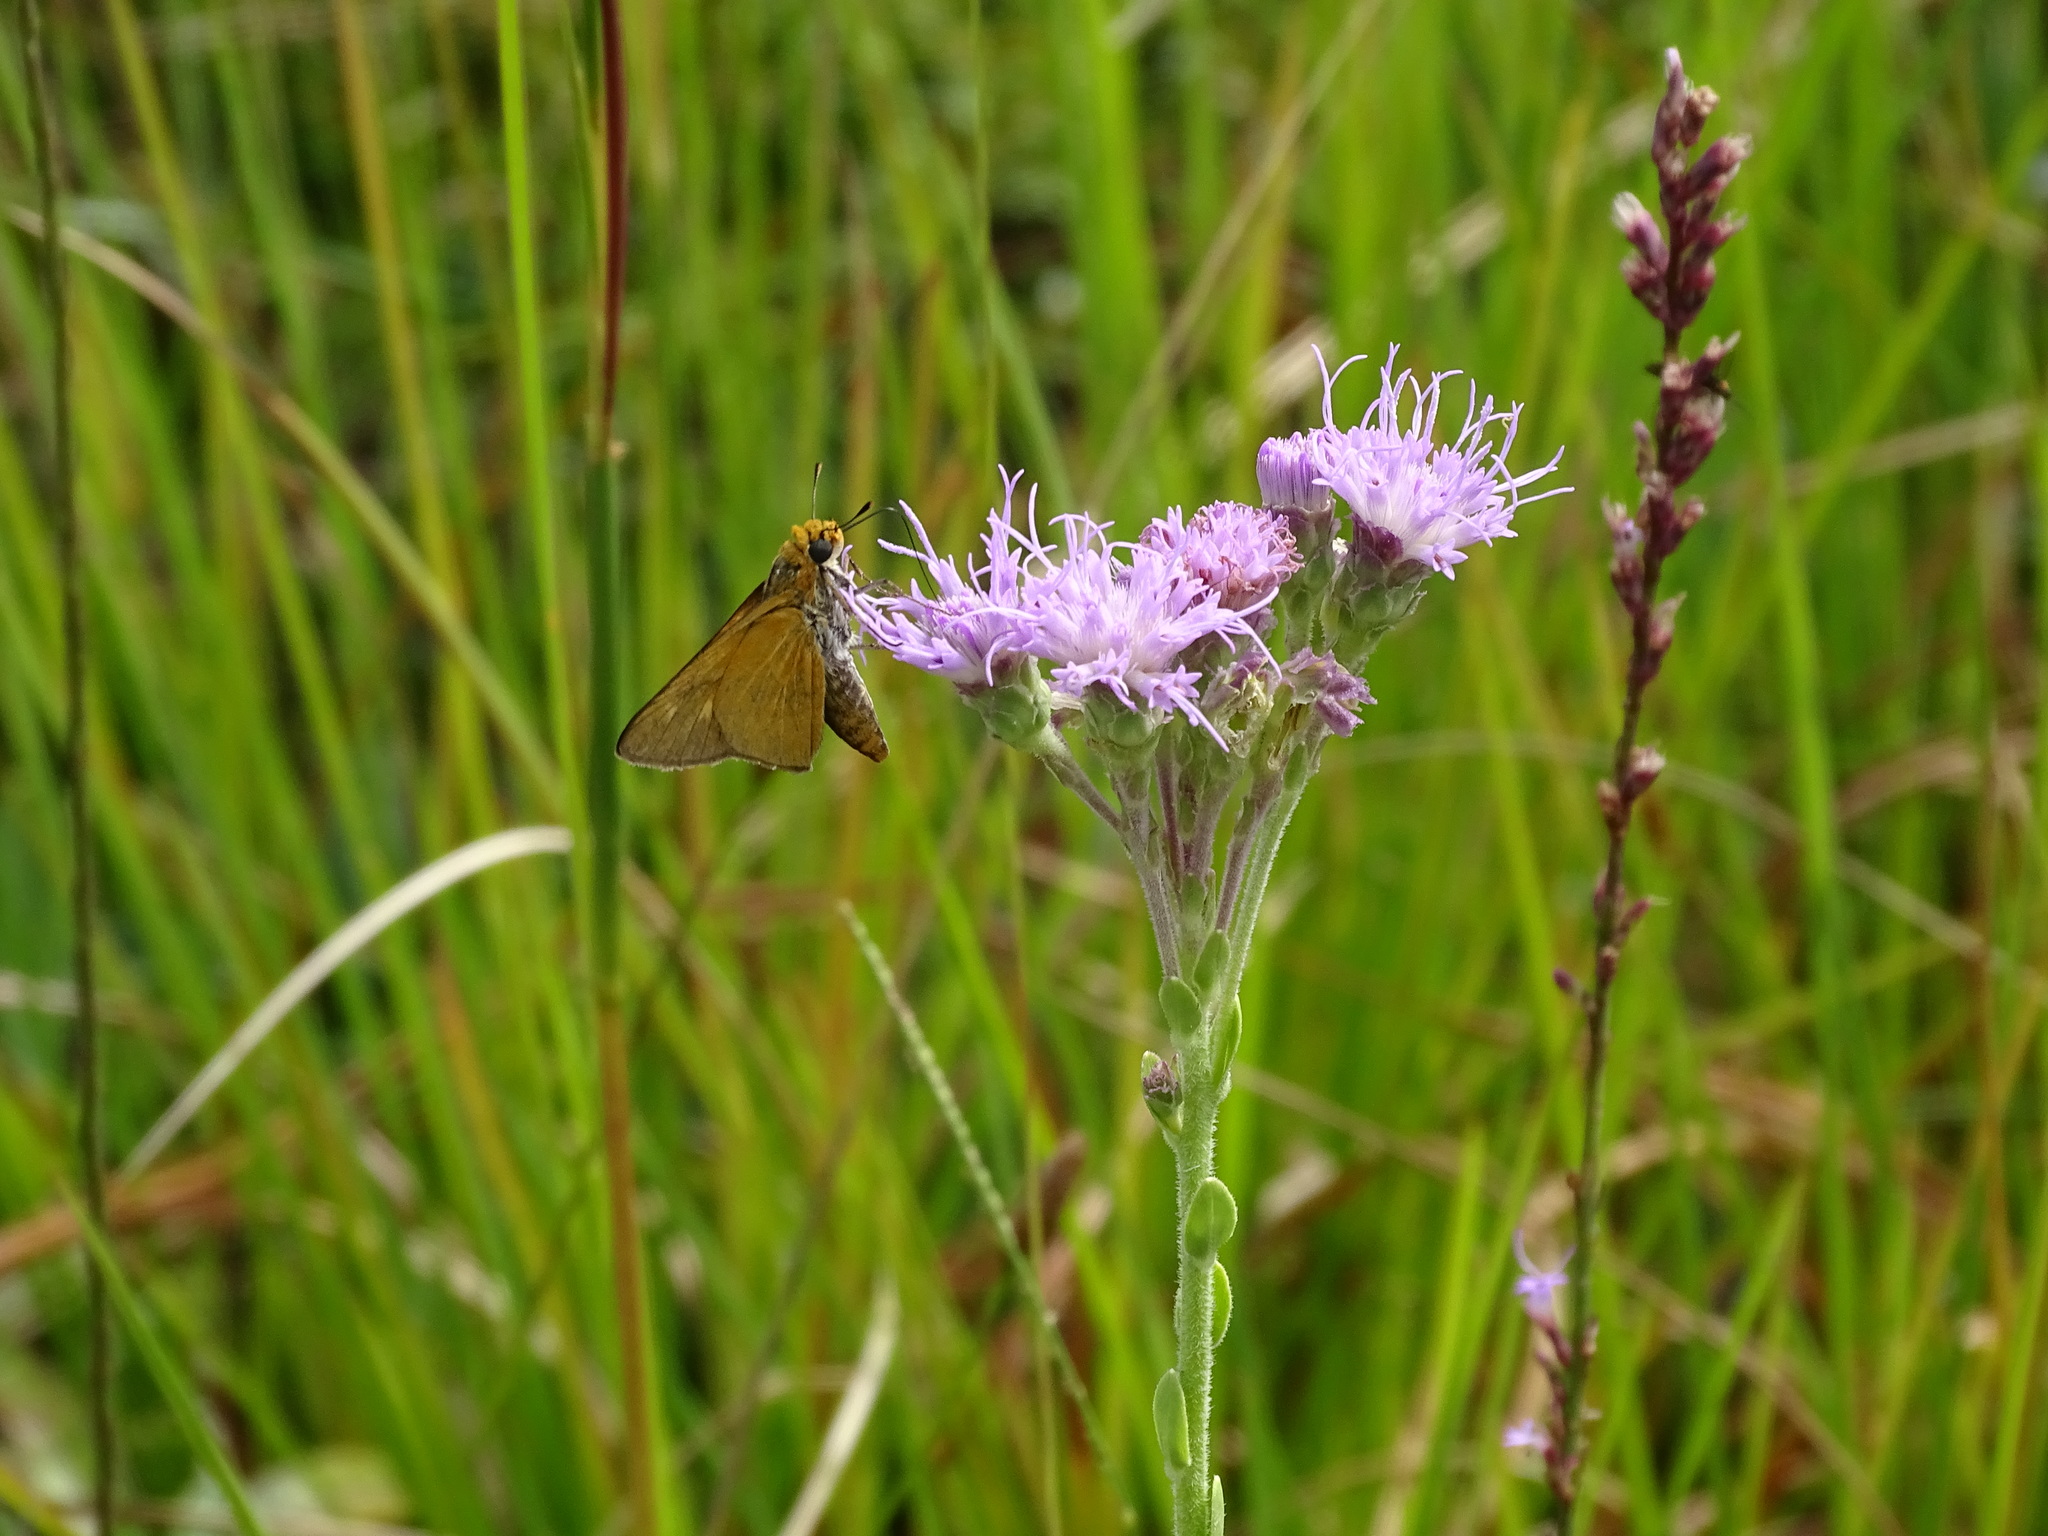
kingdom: Animalia
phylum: Arthropoda
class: Insecta
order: Lepidoptera
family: Hesperiidae
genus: Euphyes
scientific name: Euphyes arpa
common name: Palmetto skipper
